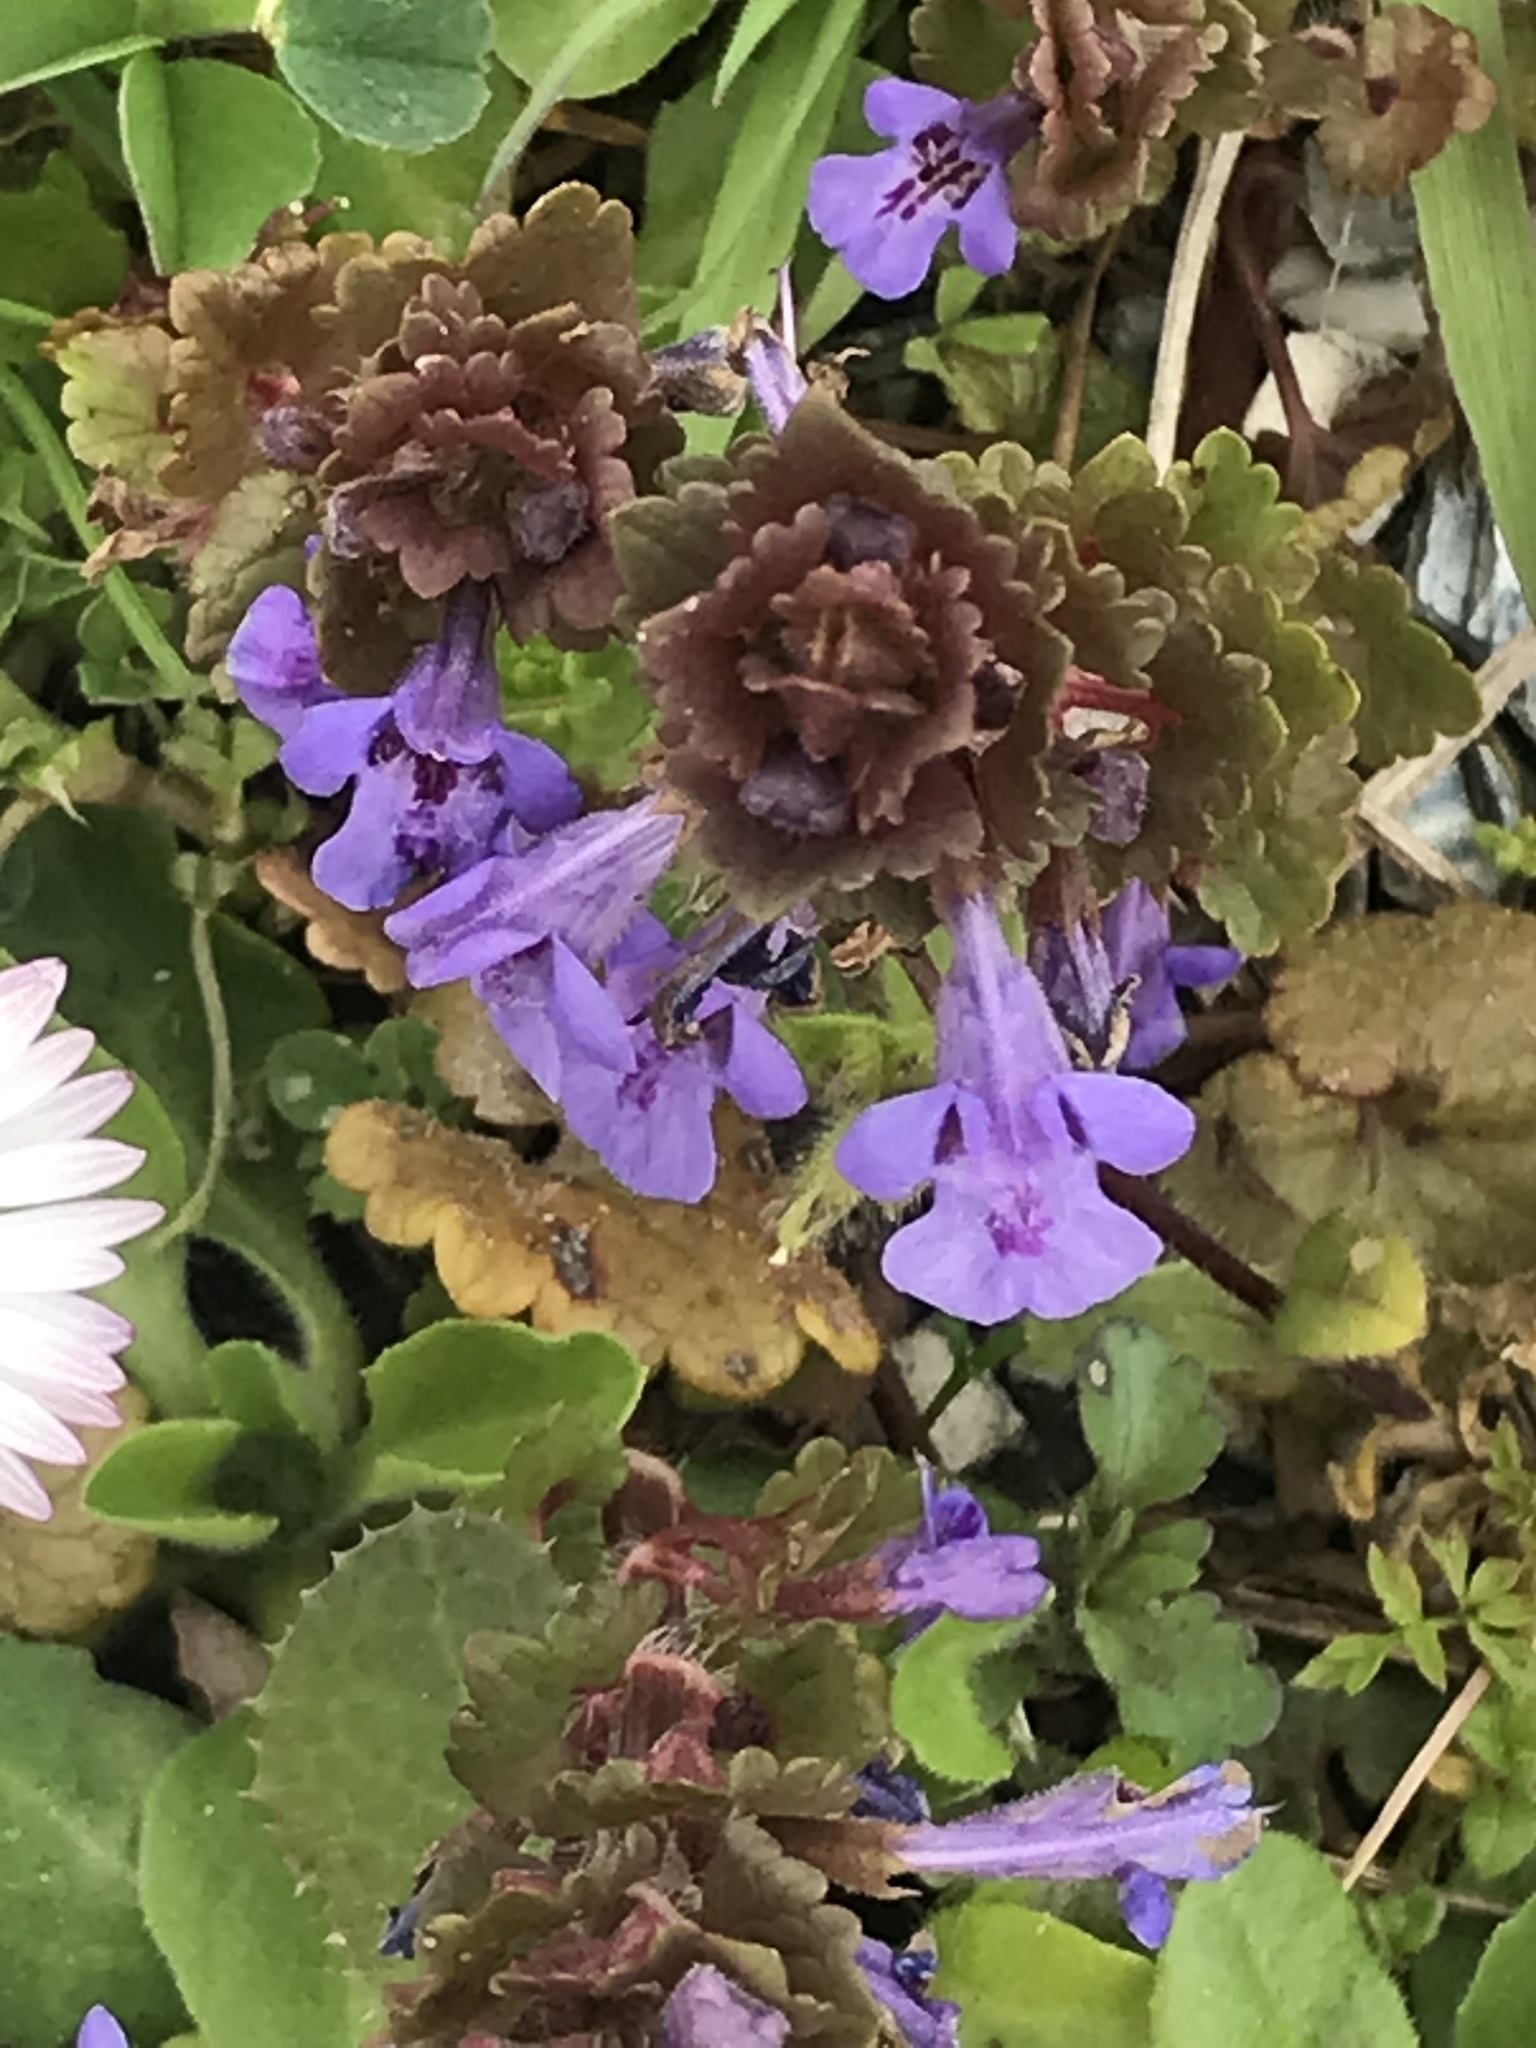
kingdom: Plantae
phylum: Tracheophyta
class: Magnoliopsida
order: Lamiales
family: Lamiaceae
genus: Glechoma
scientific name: Glechoma hederacea
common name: Ground ivy
